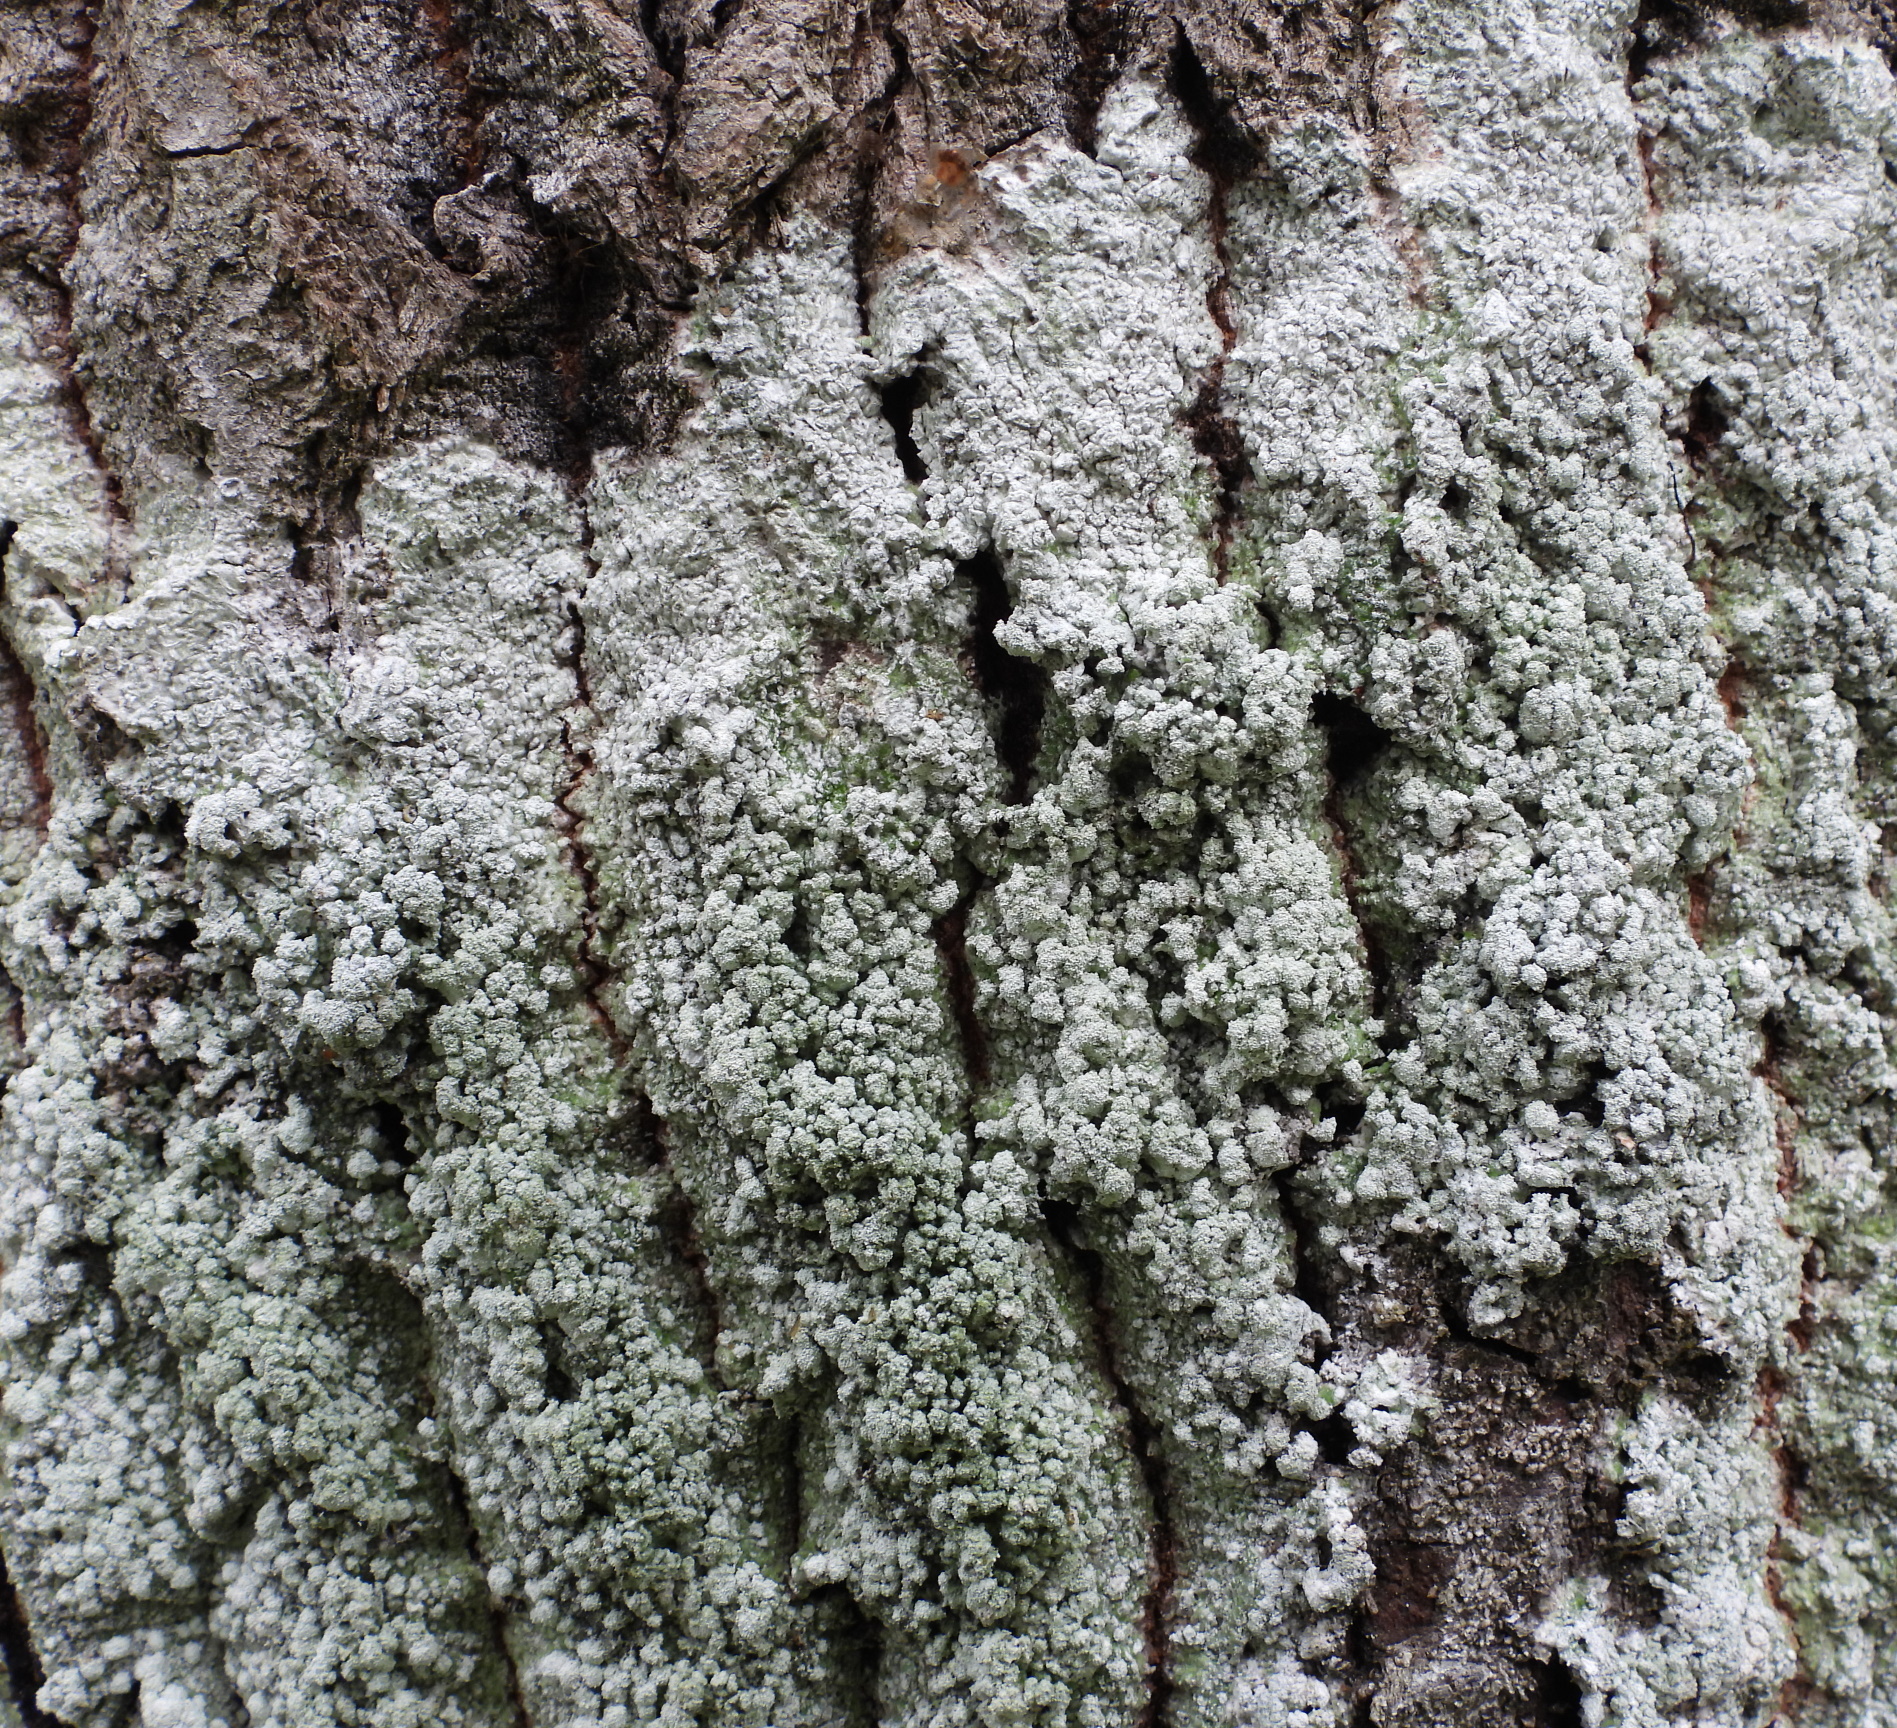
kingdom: Fungi
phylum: Ascomycota
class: Lecanoromycetes
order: Pertusariales
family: Pertusariaceae
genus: Lepra
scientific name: Lepra amara
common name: Bitter wart lichen
